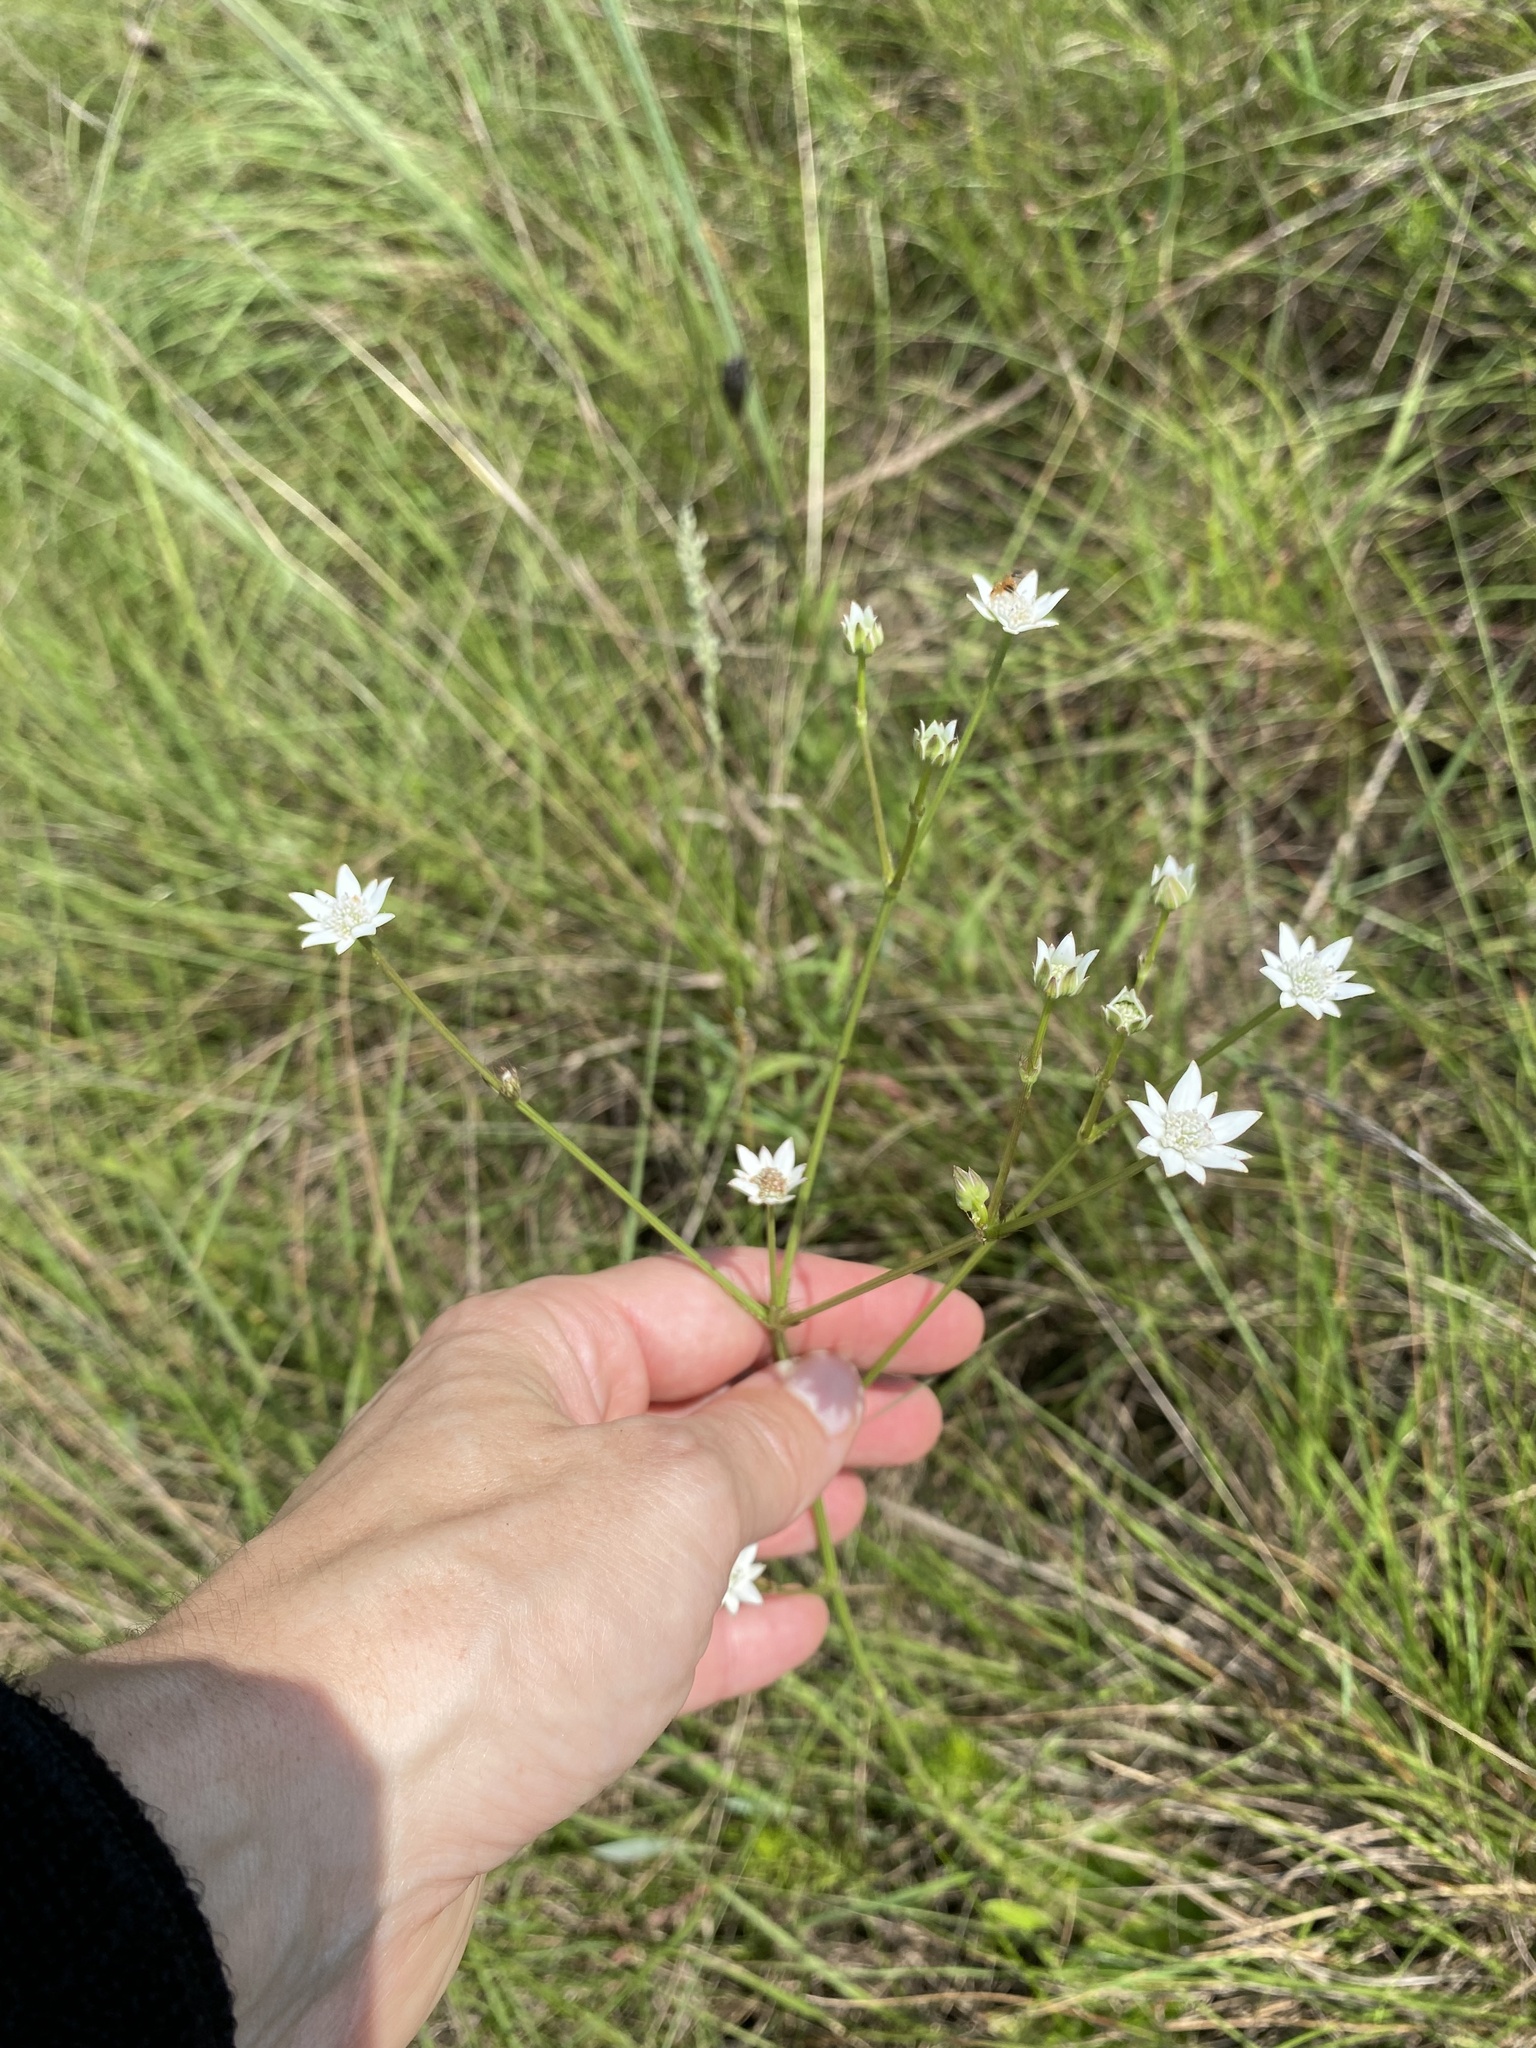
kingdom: Plantae
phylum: Tracheophyta
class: Magnoliopsida
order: Apiales
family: Apiaceae
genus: Alepidea
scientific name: Alepidea peduncularis
